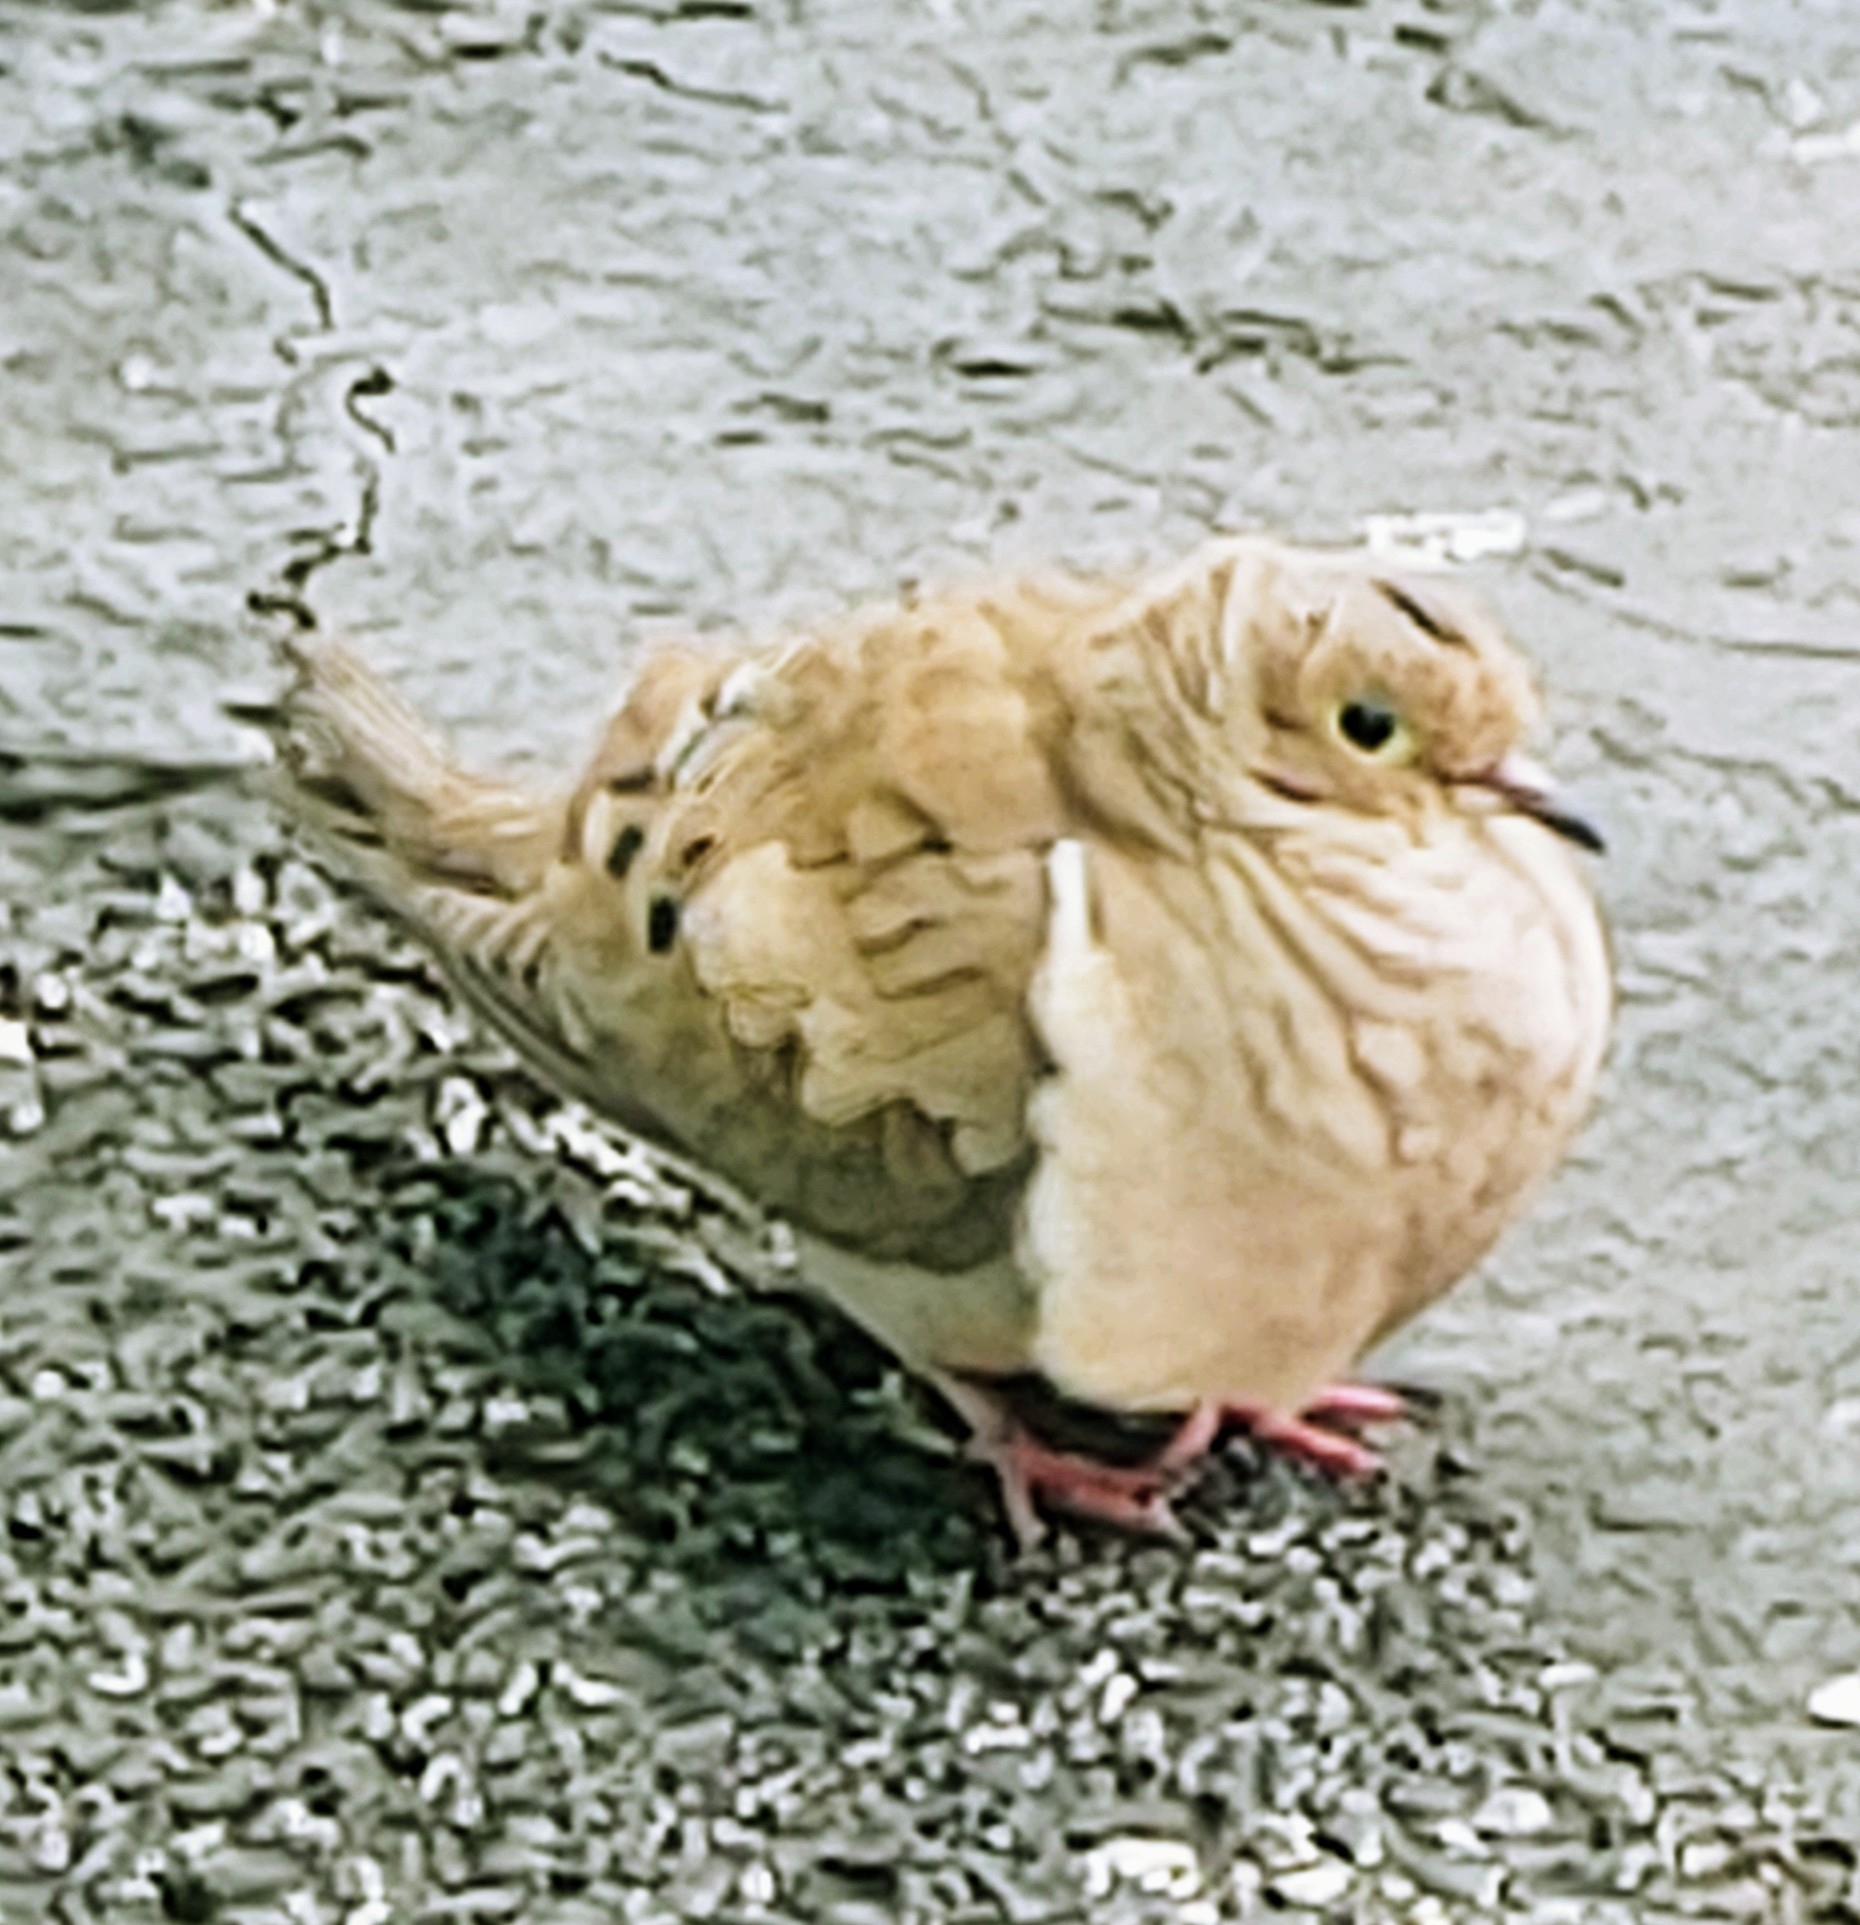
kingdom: Animalia
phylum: Chordata
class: Aves
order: Columbiformes
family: Columbidae
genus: Zenaida
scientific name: Zenaida macroura
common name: Mourning dove
